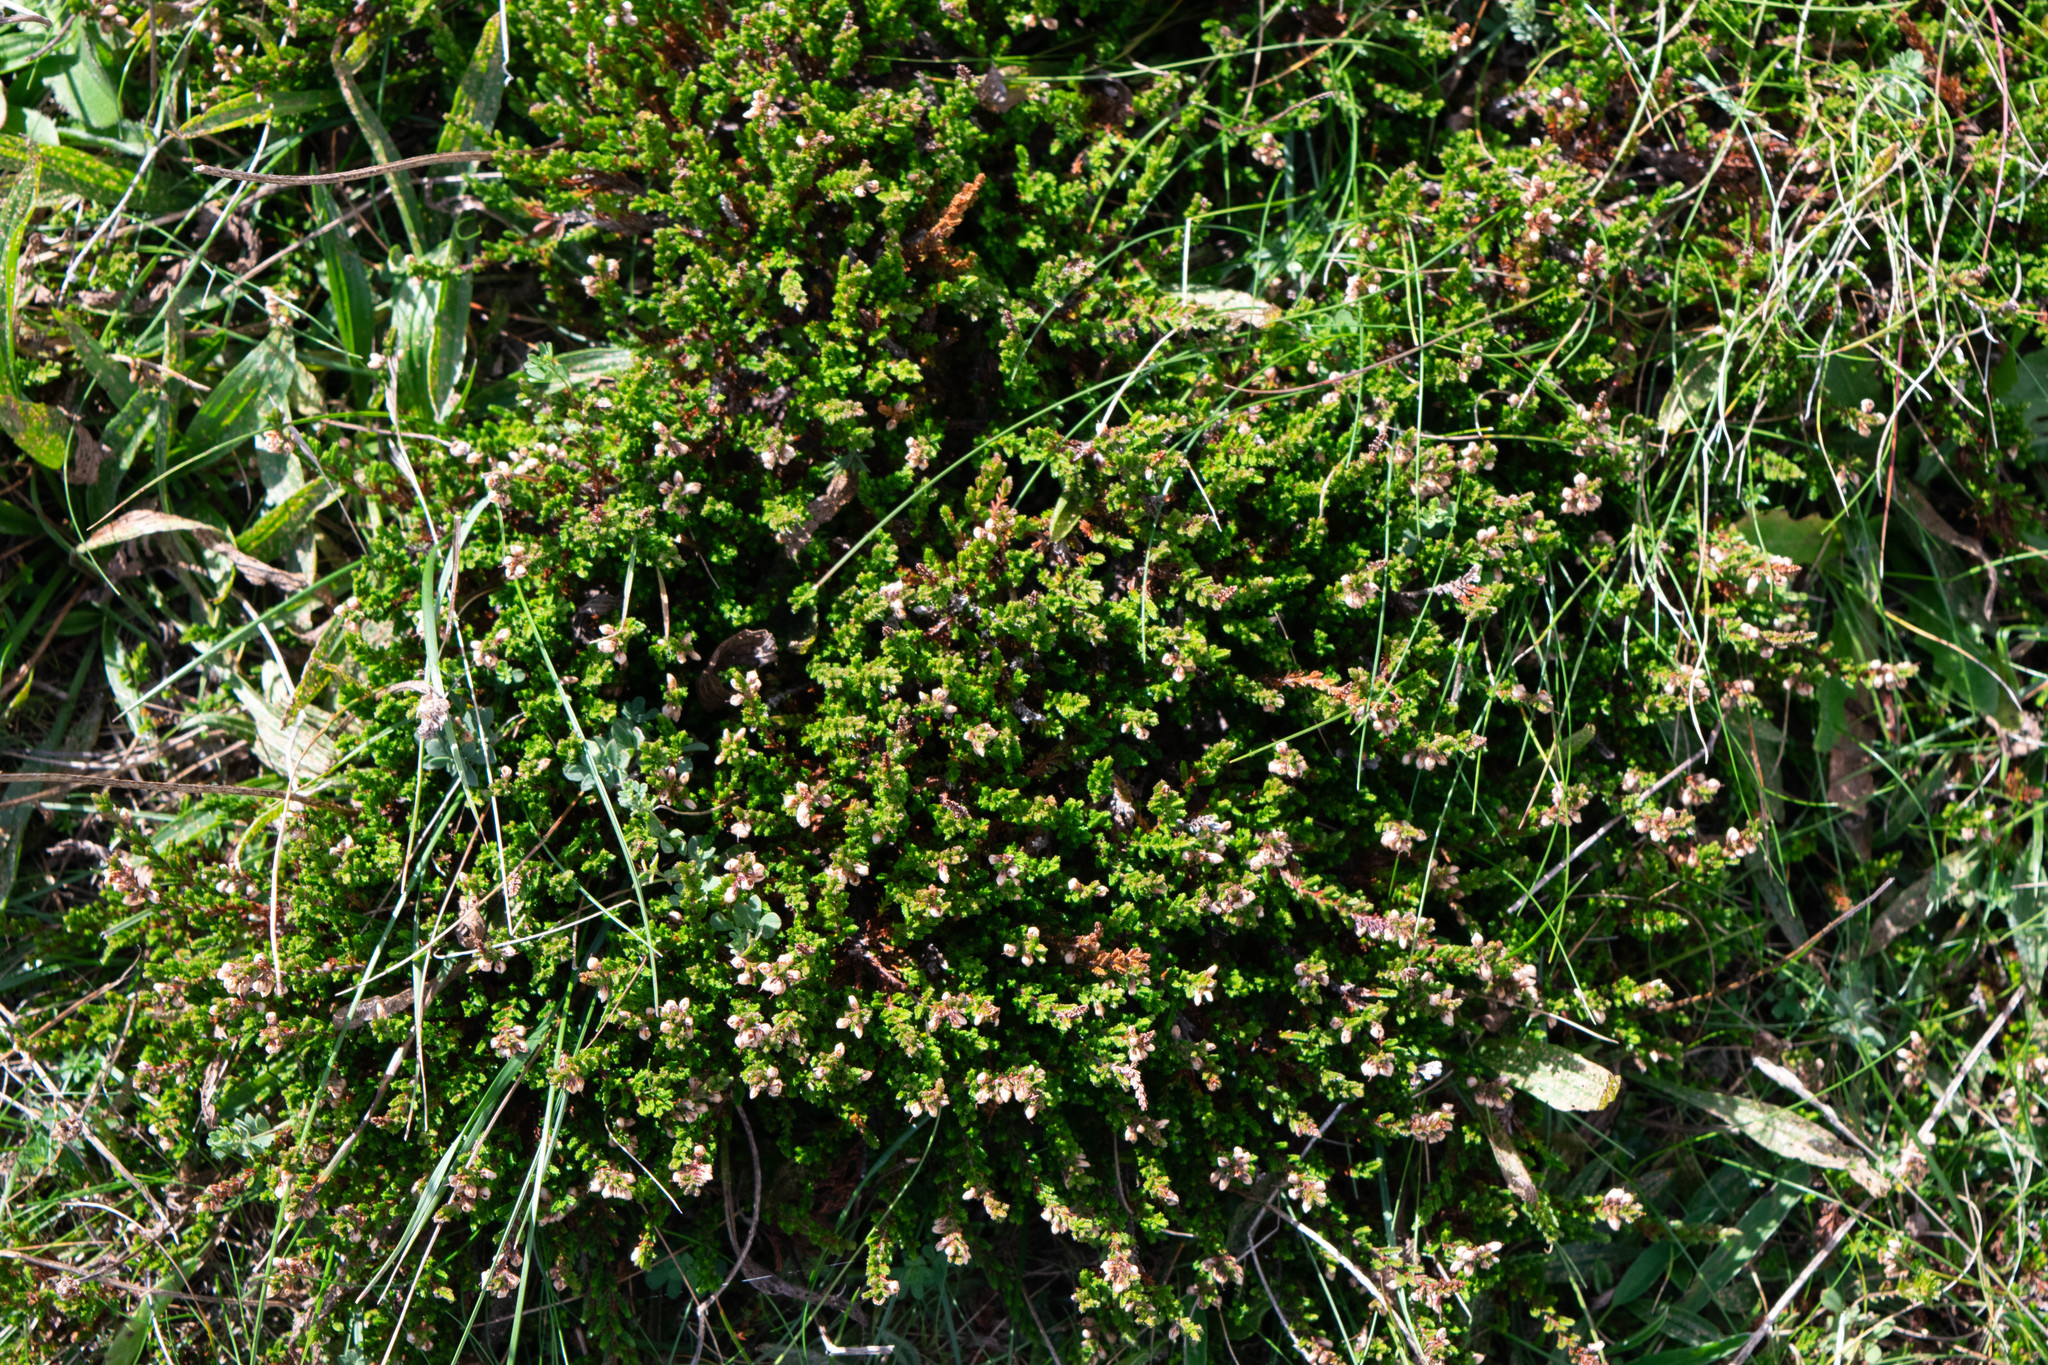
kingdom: Plantae
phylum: Tracheophyta
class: Magnoliopsida
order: Ericales
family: Ericaceae
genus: Calluna
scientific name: Calluna vulgaris
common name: Heather
